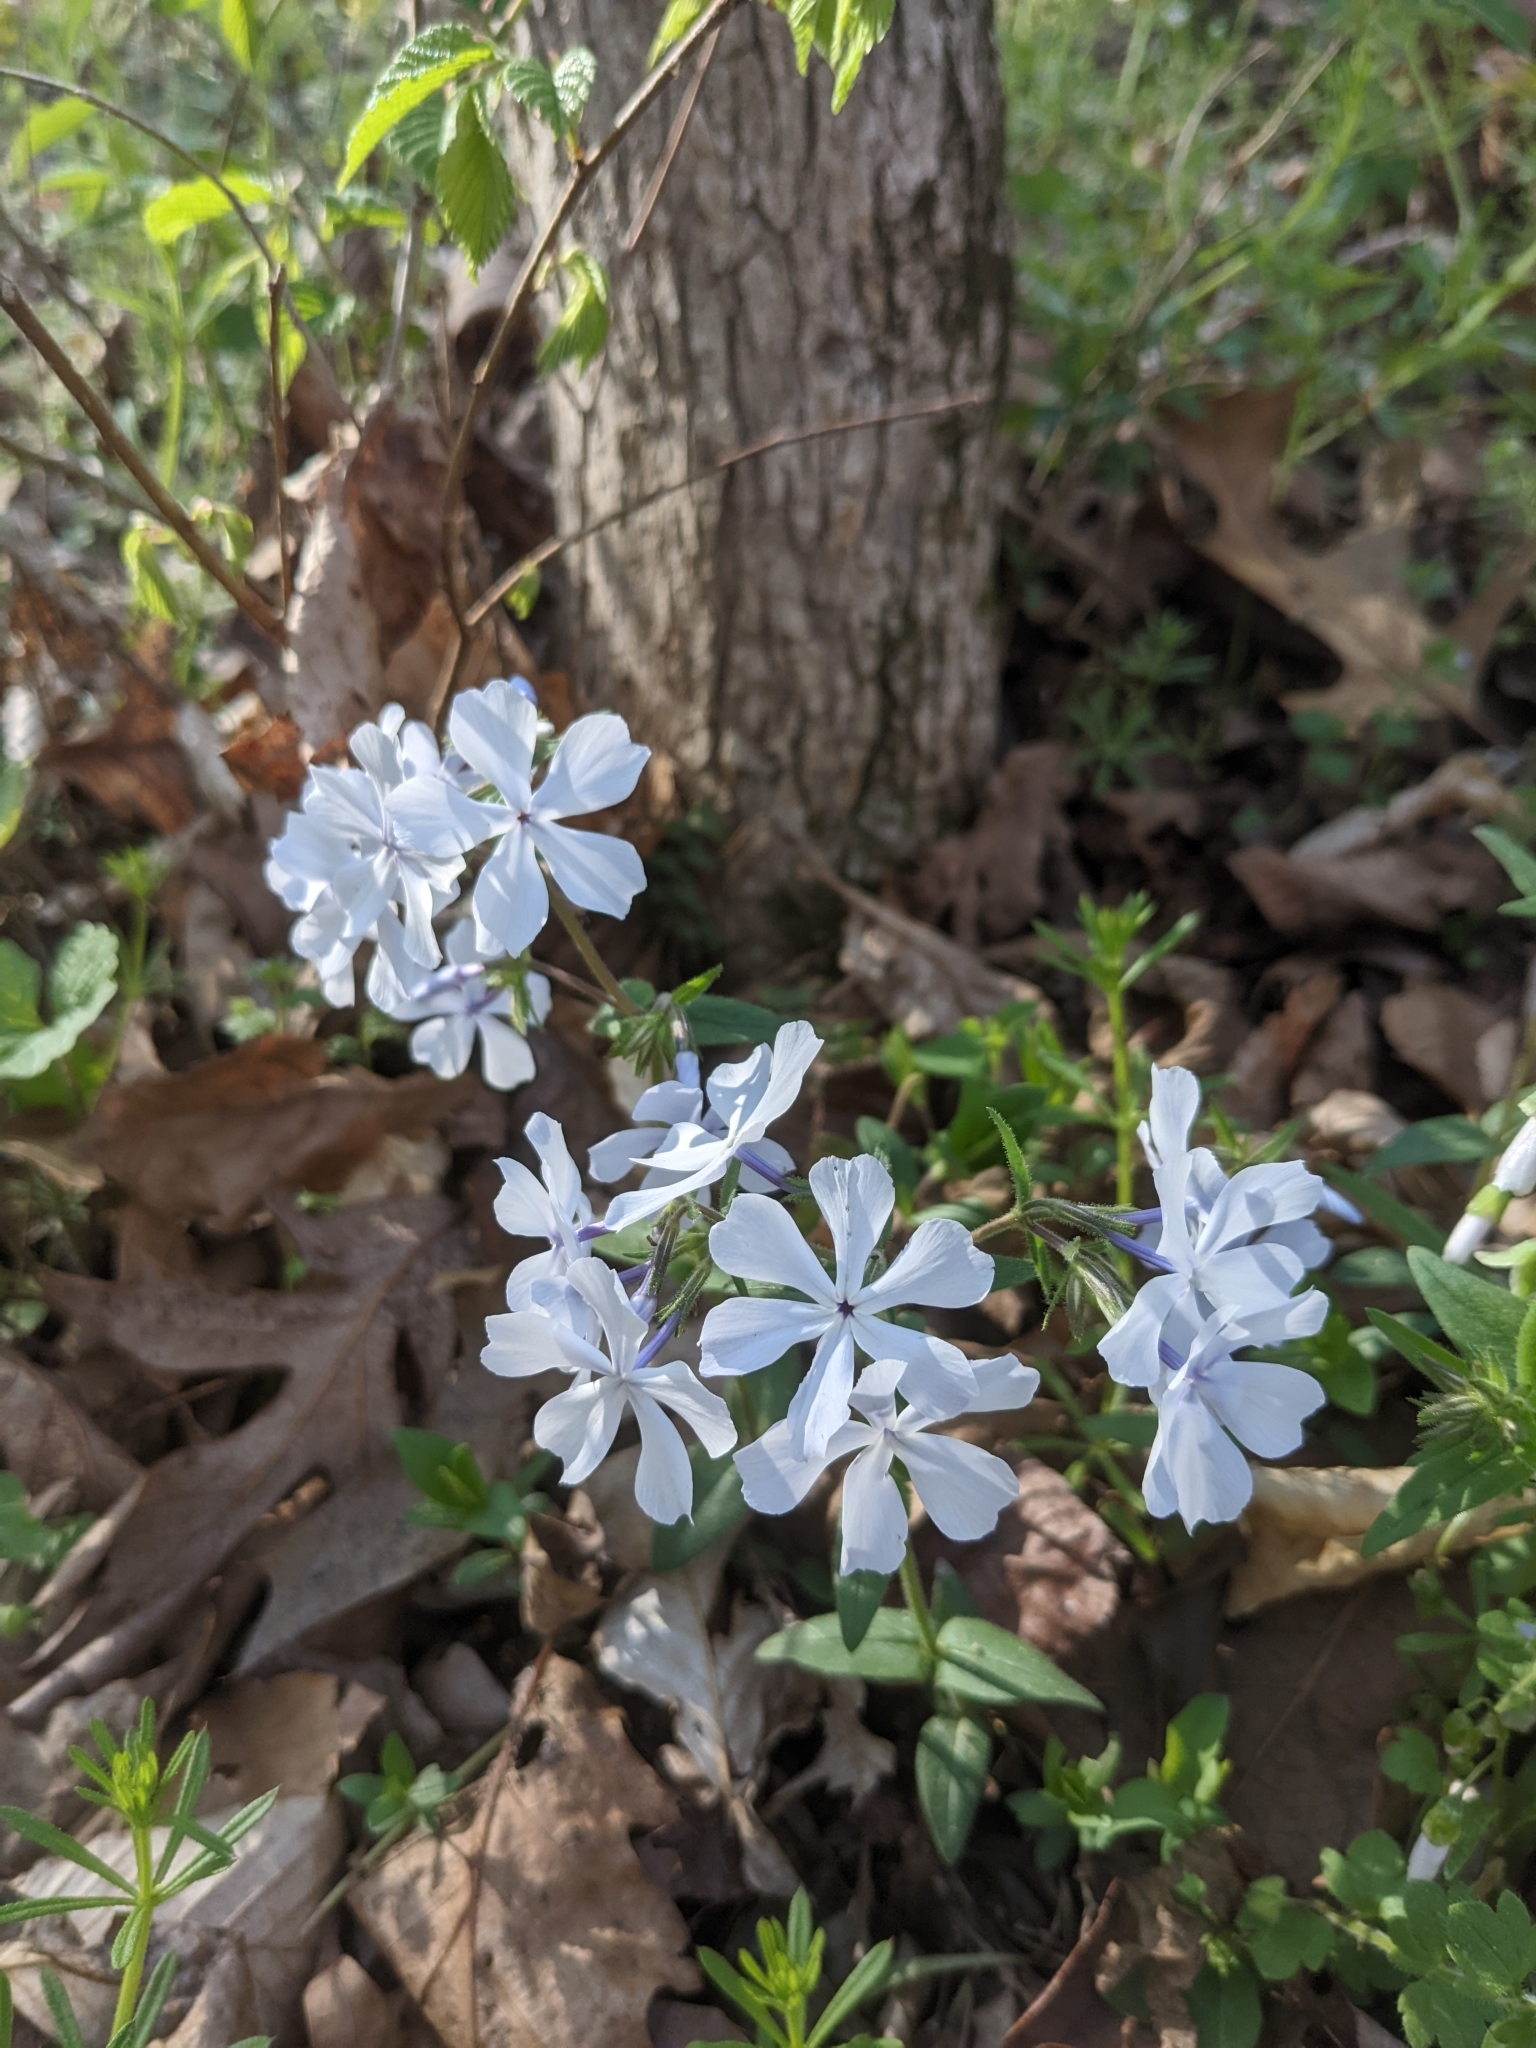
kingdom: Plantae
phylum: Tracheophyta
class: Magnoliopsida
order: Ericales
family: Polemoniaceae
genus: Phlox
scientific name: Phlox divaricata
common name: Blue phlox
